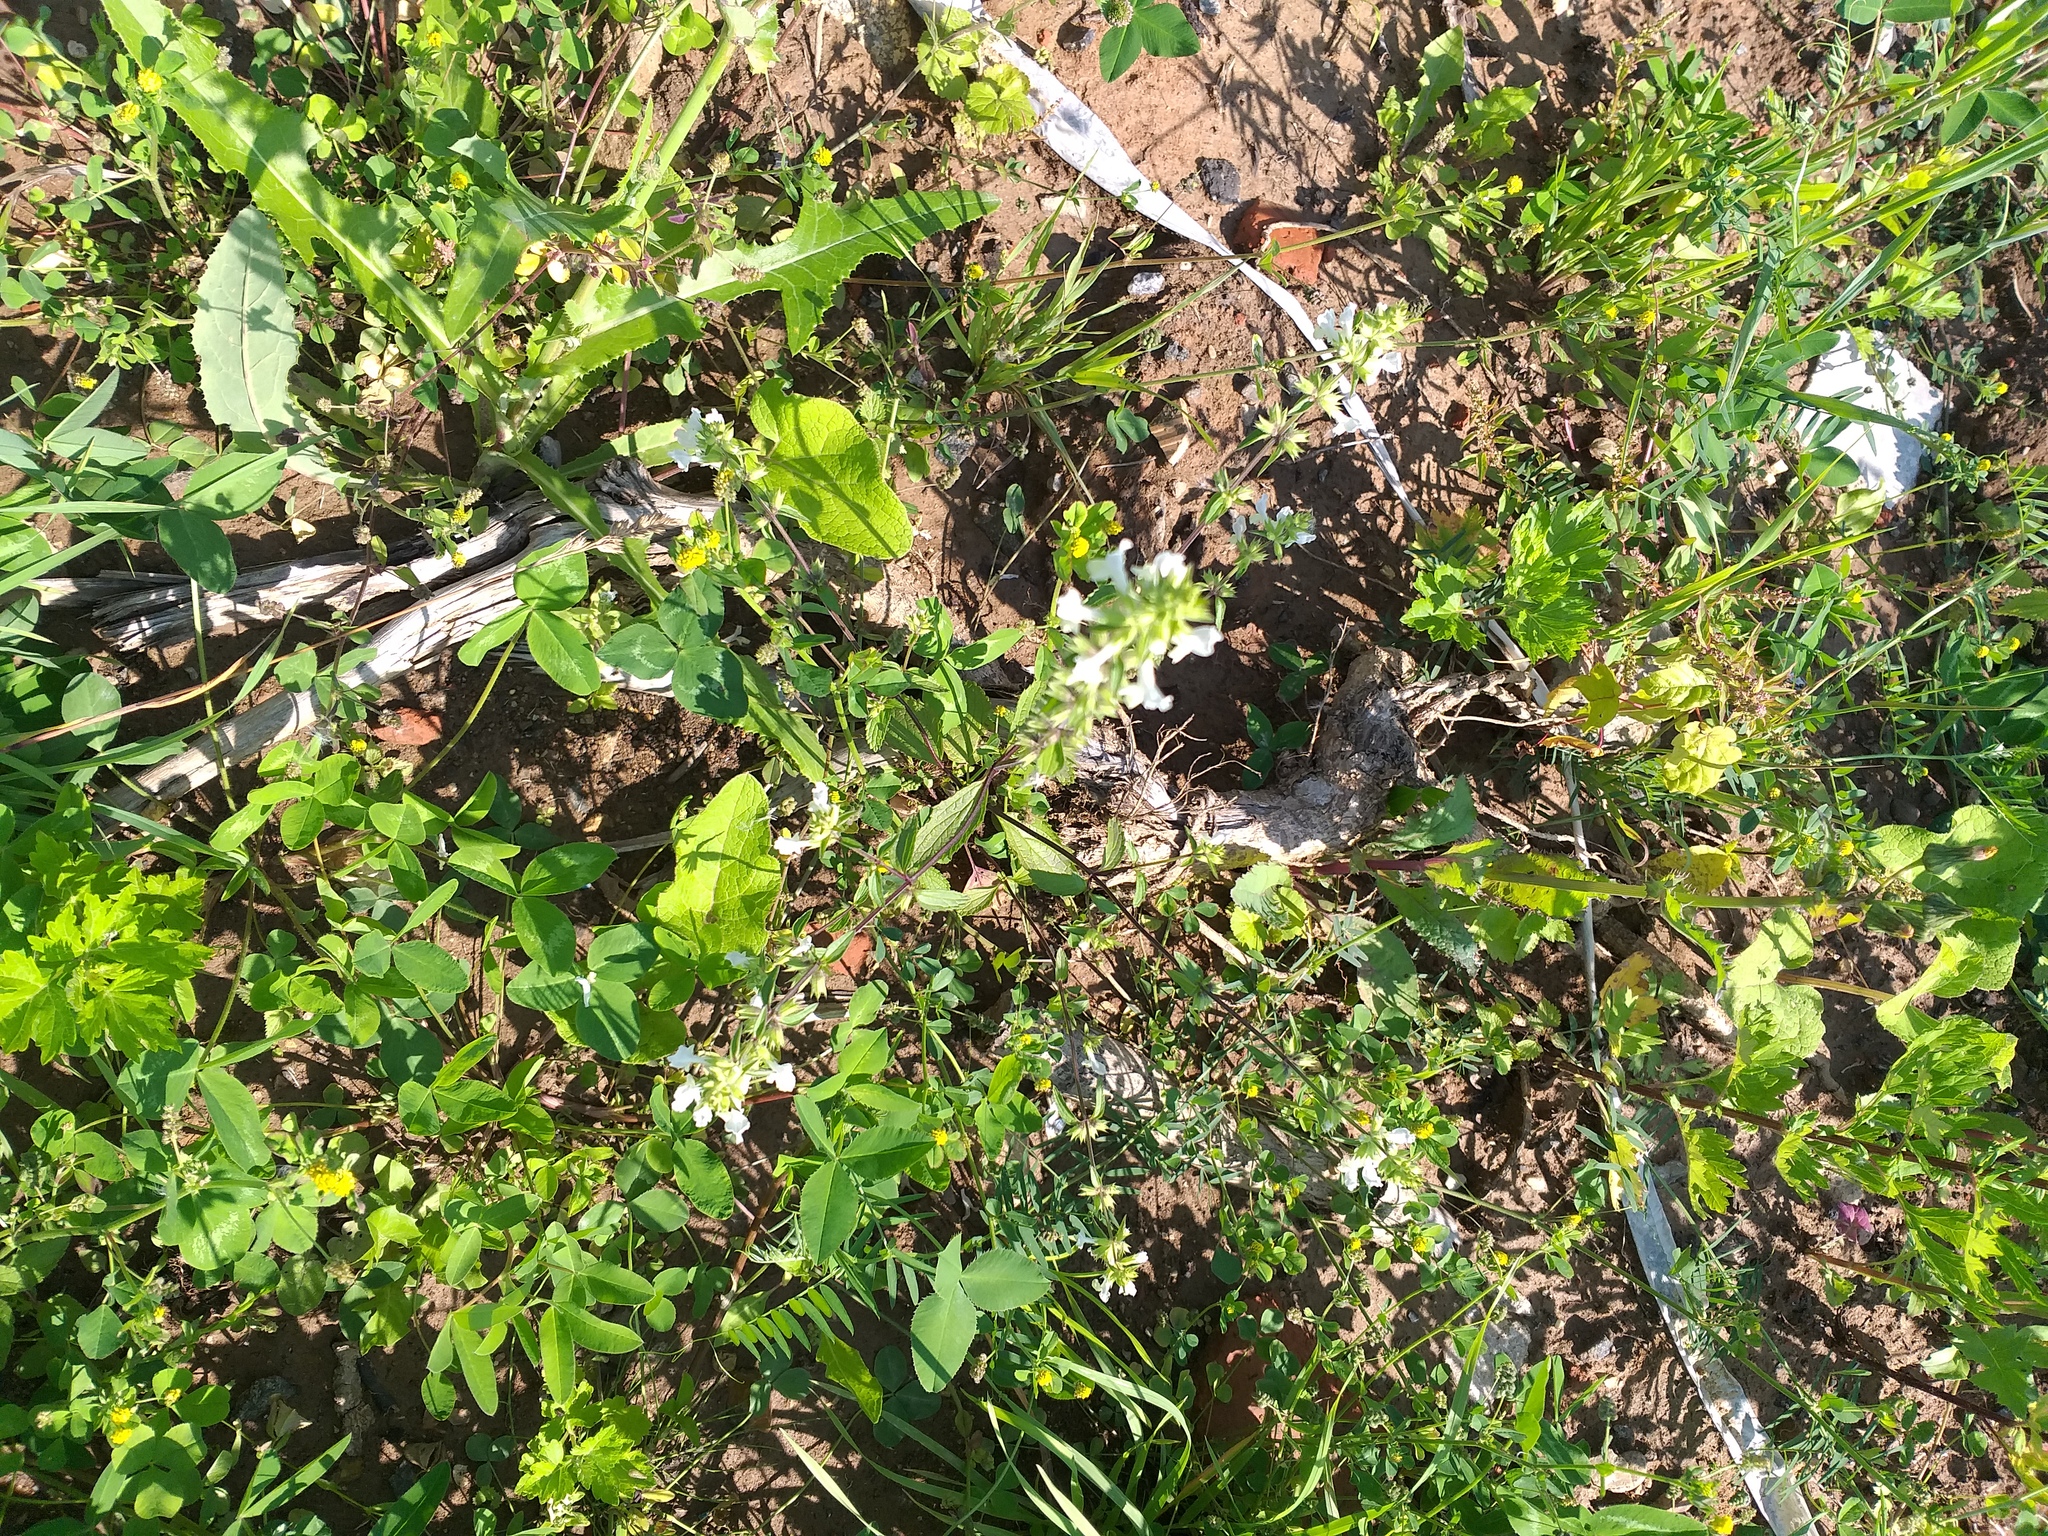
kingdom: Plantae
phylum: Tracheophyta
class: Magnoliopsida
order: Lamiales
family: Lamiaceae
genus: Stachys
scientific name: Stachys annua
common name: Annual yellow-woundwort
